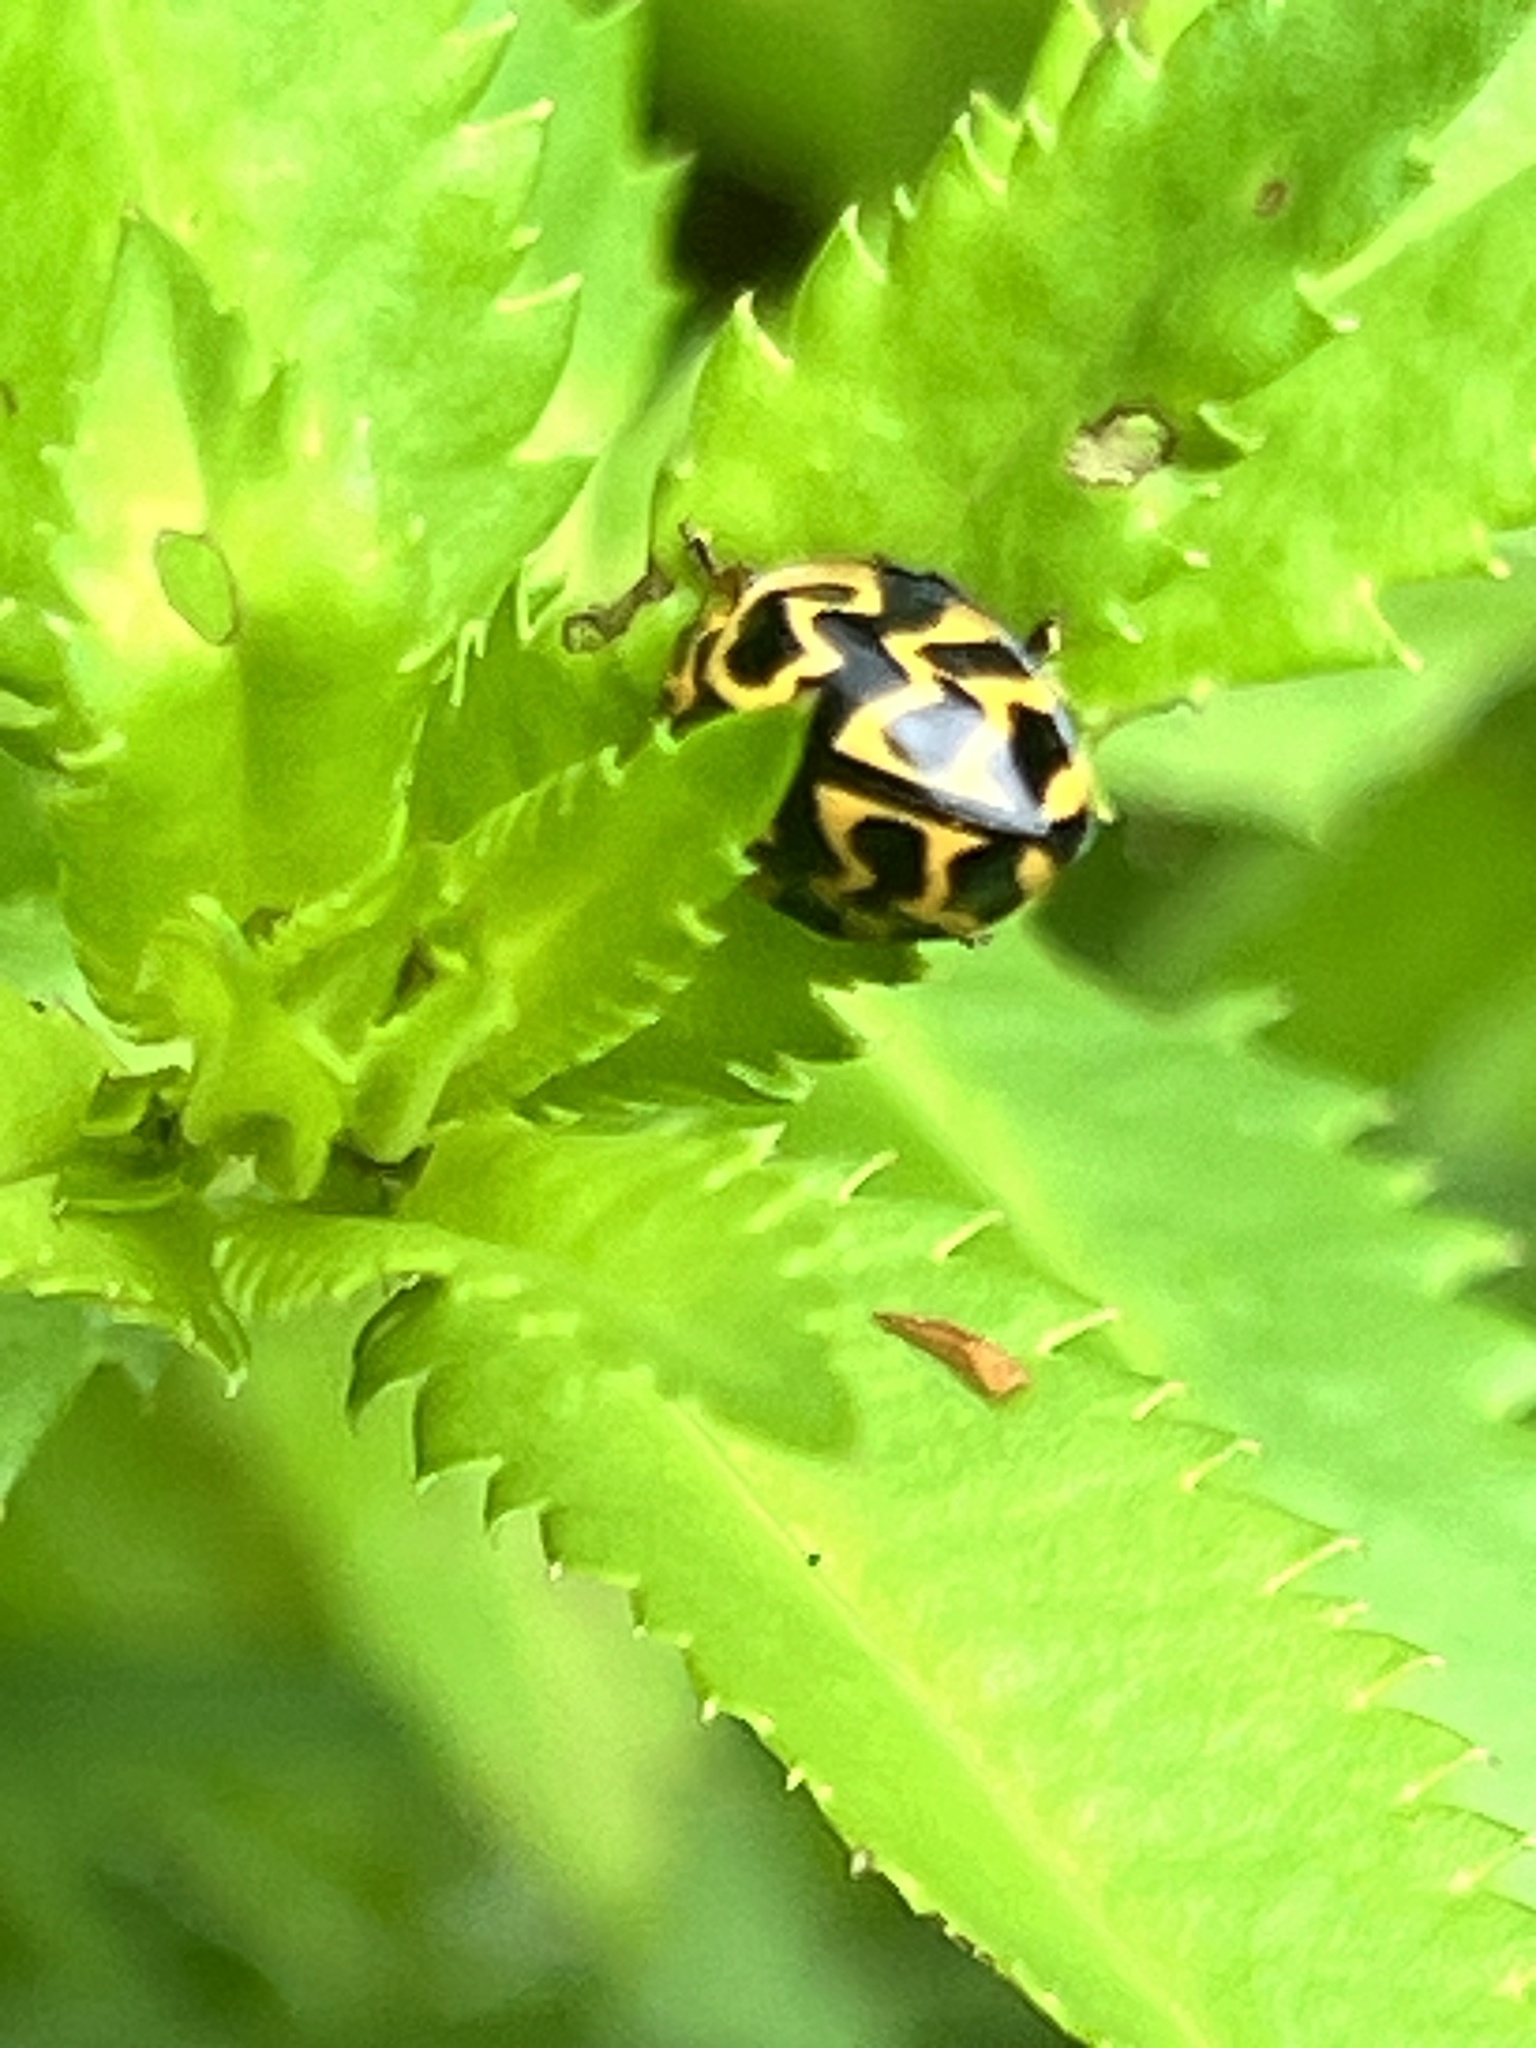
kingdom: Animalia
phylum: Arthropoda
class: Insecta
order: Coleoptera
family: Coccinellidae
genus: Cleobora
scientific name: Cleobora
